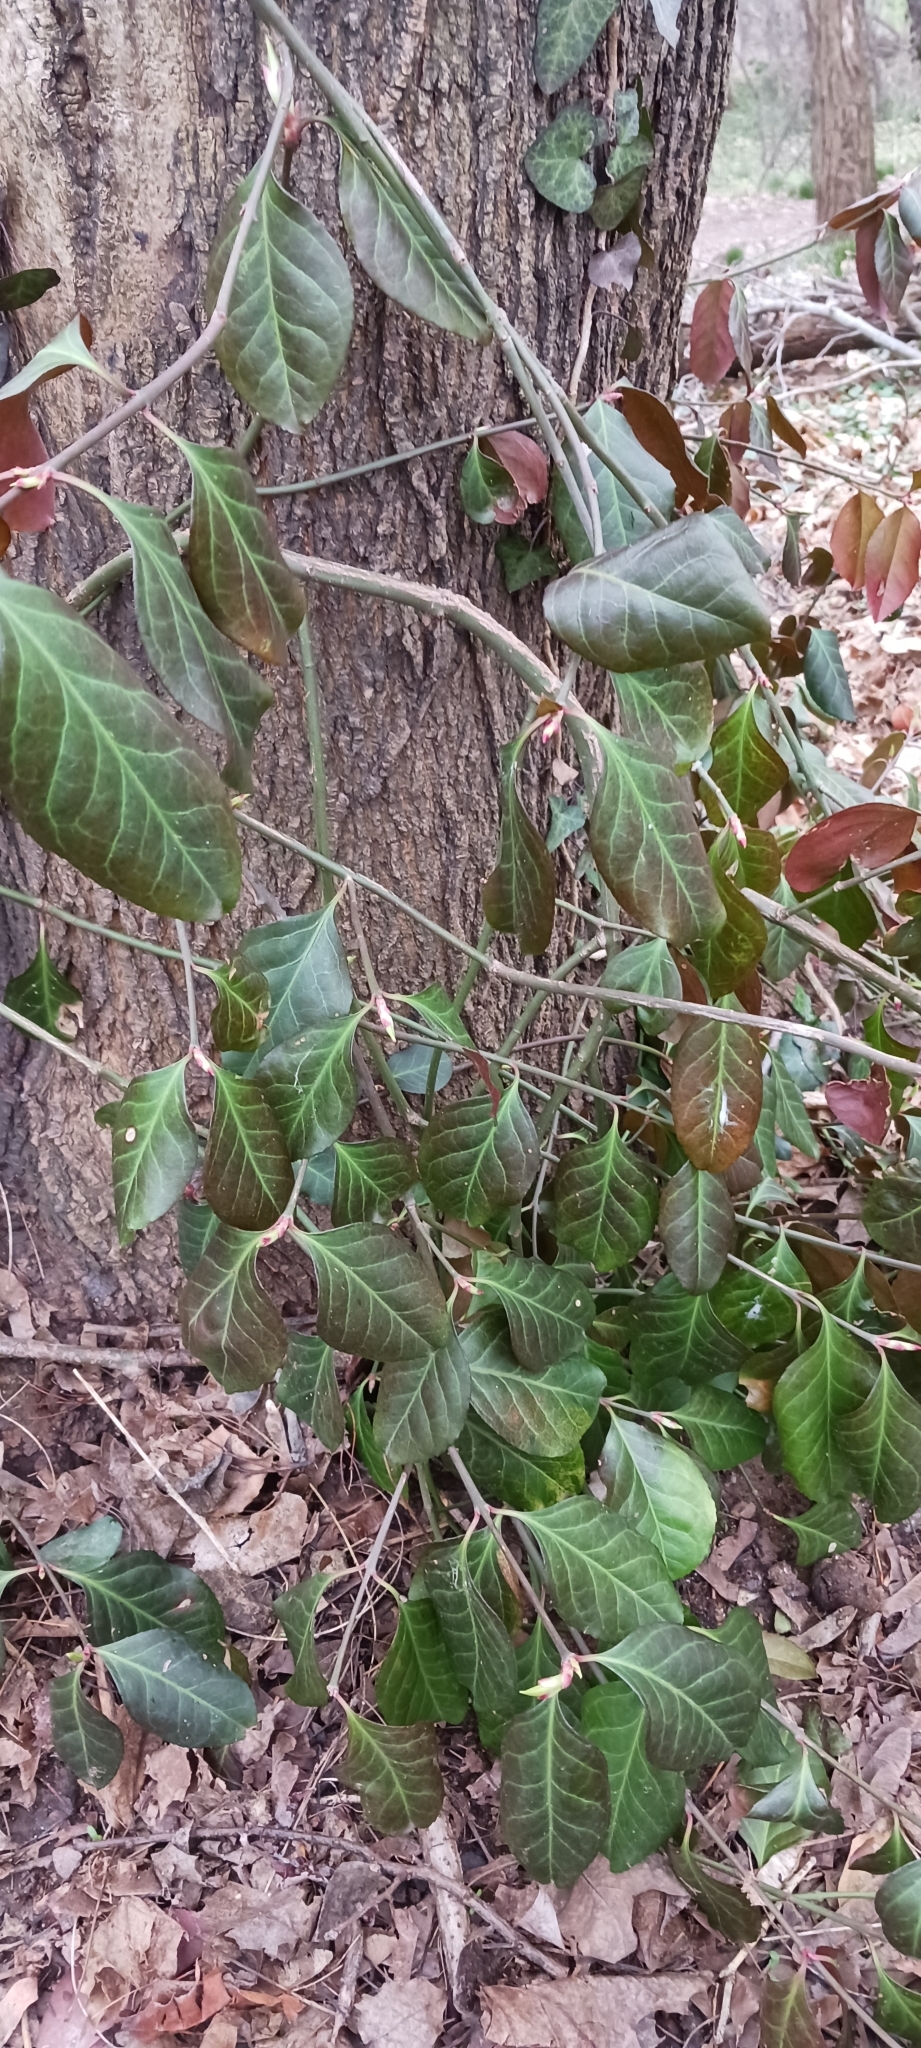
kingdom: Plantae
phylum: Tracheophyta
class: Magnoliopsida
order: Celastrales
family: Celastraceae
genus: Euonymus
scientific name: Euonymus fortunei
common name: Climbing euonymus
